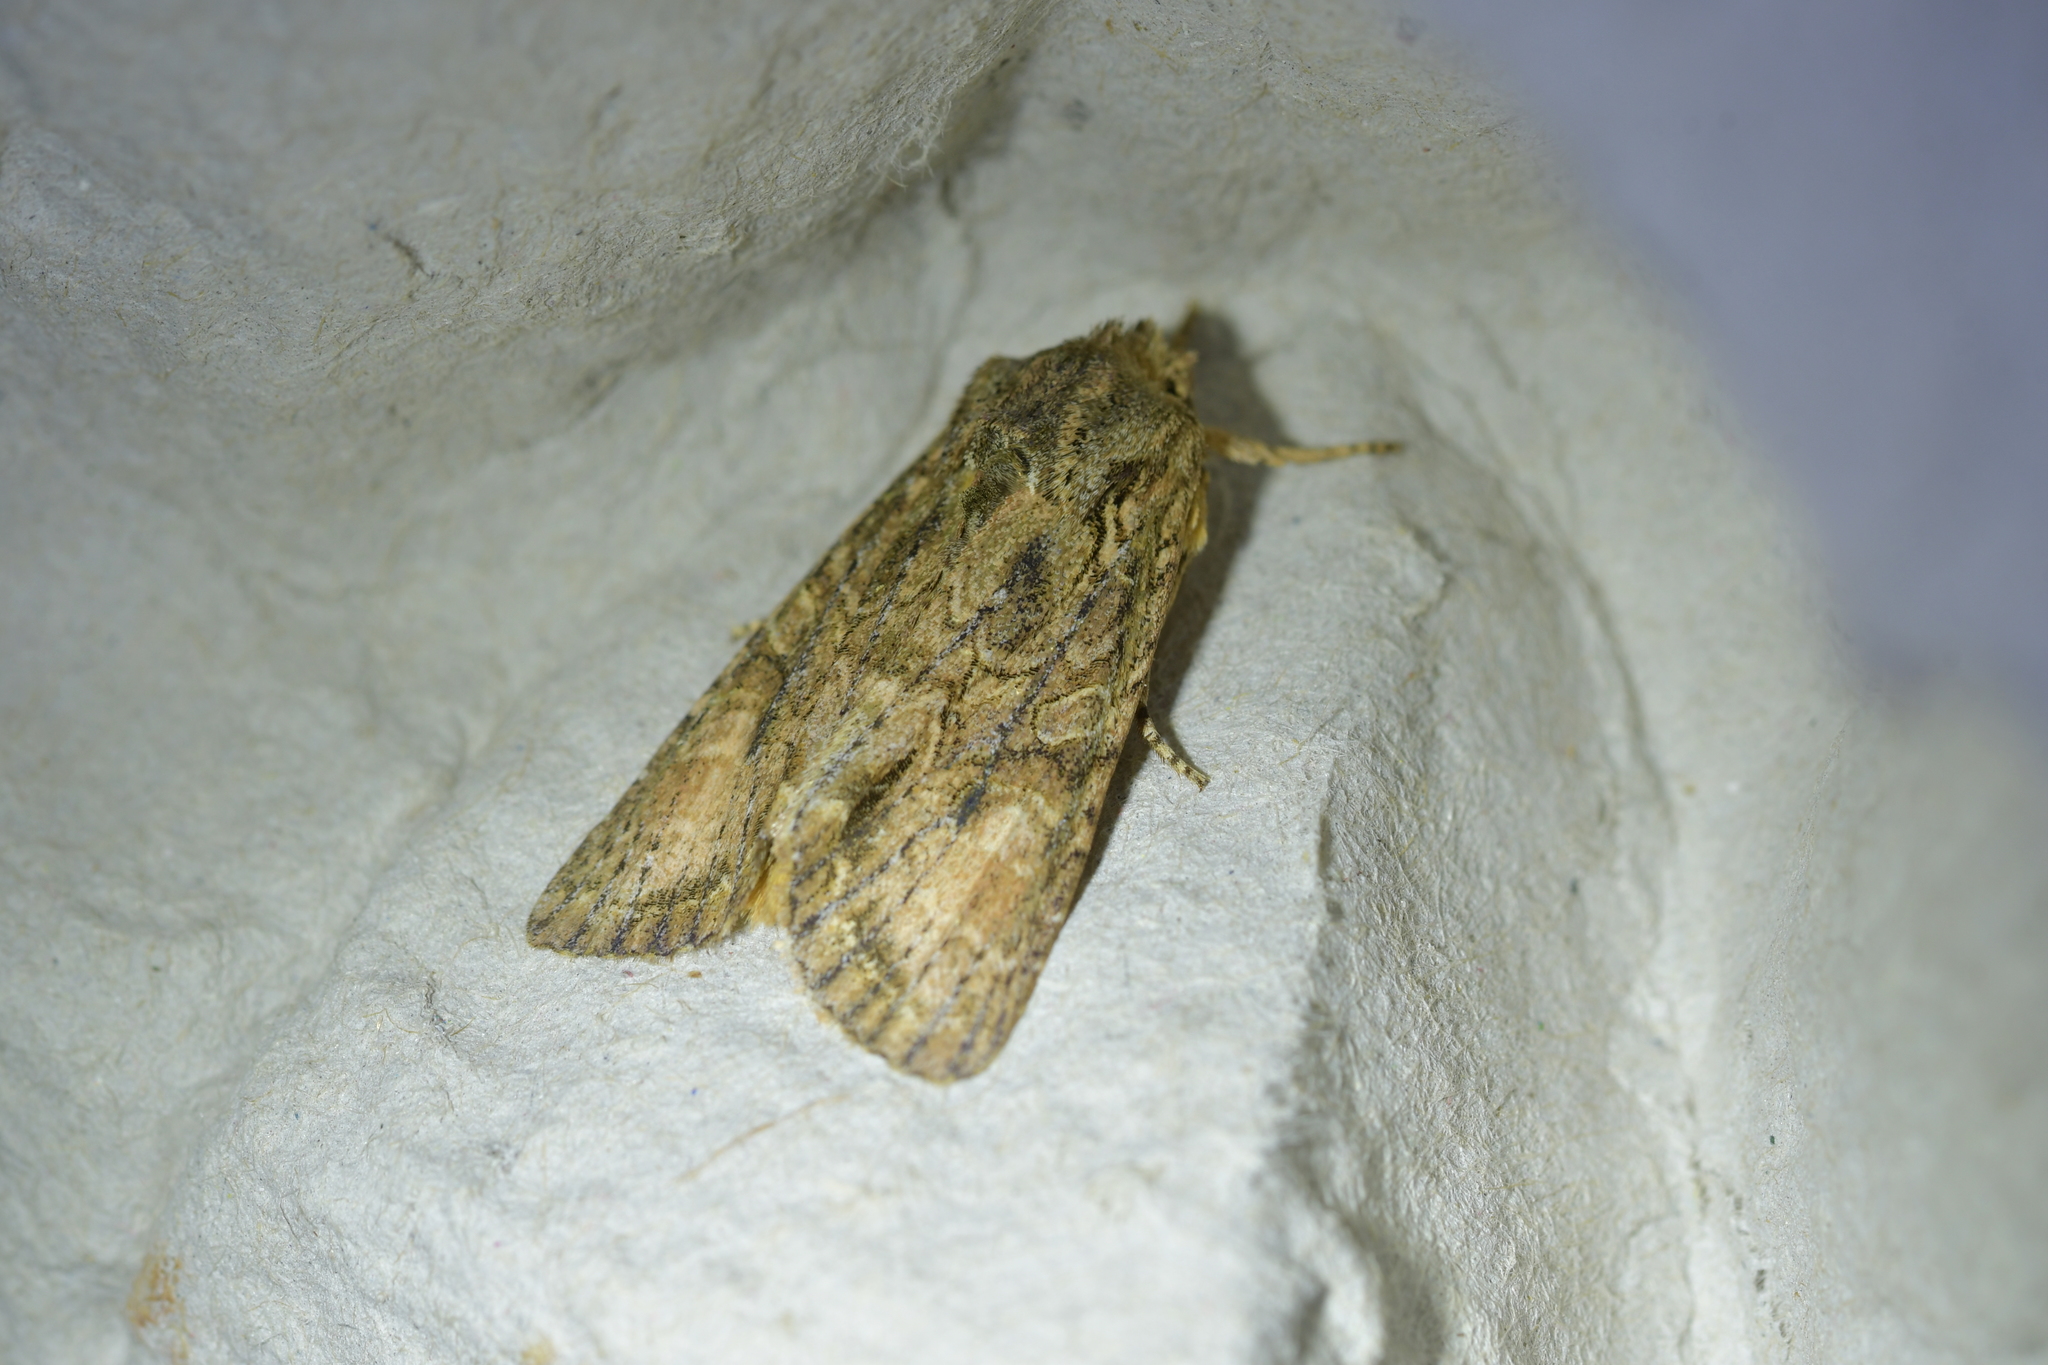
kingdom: Animalia
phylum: Arthropoda
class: Insecta
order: Lepidoptera
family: Noctuidae
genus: Ichneutica
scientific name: Ichneutica mutans
